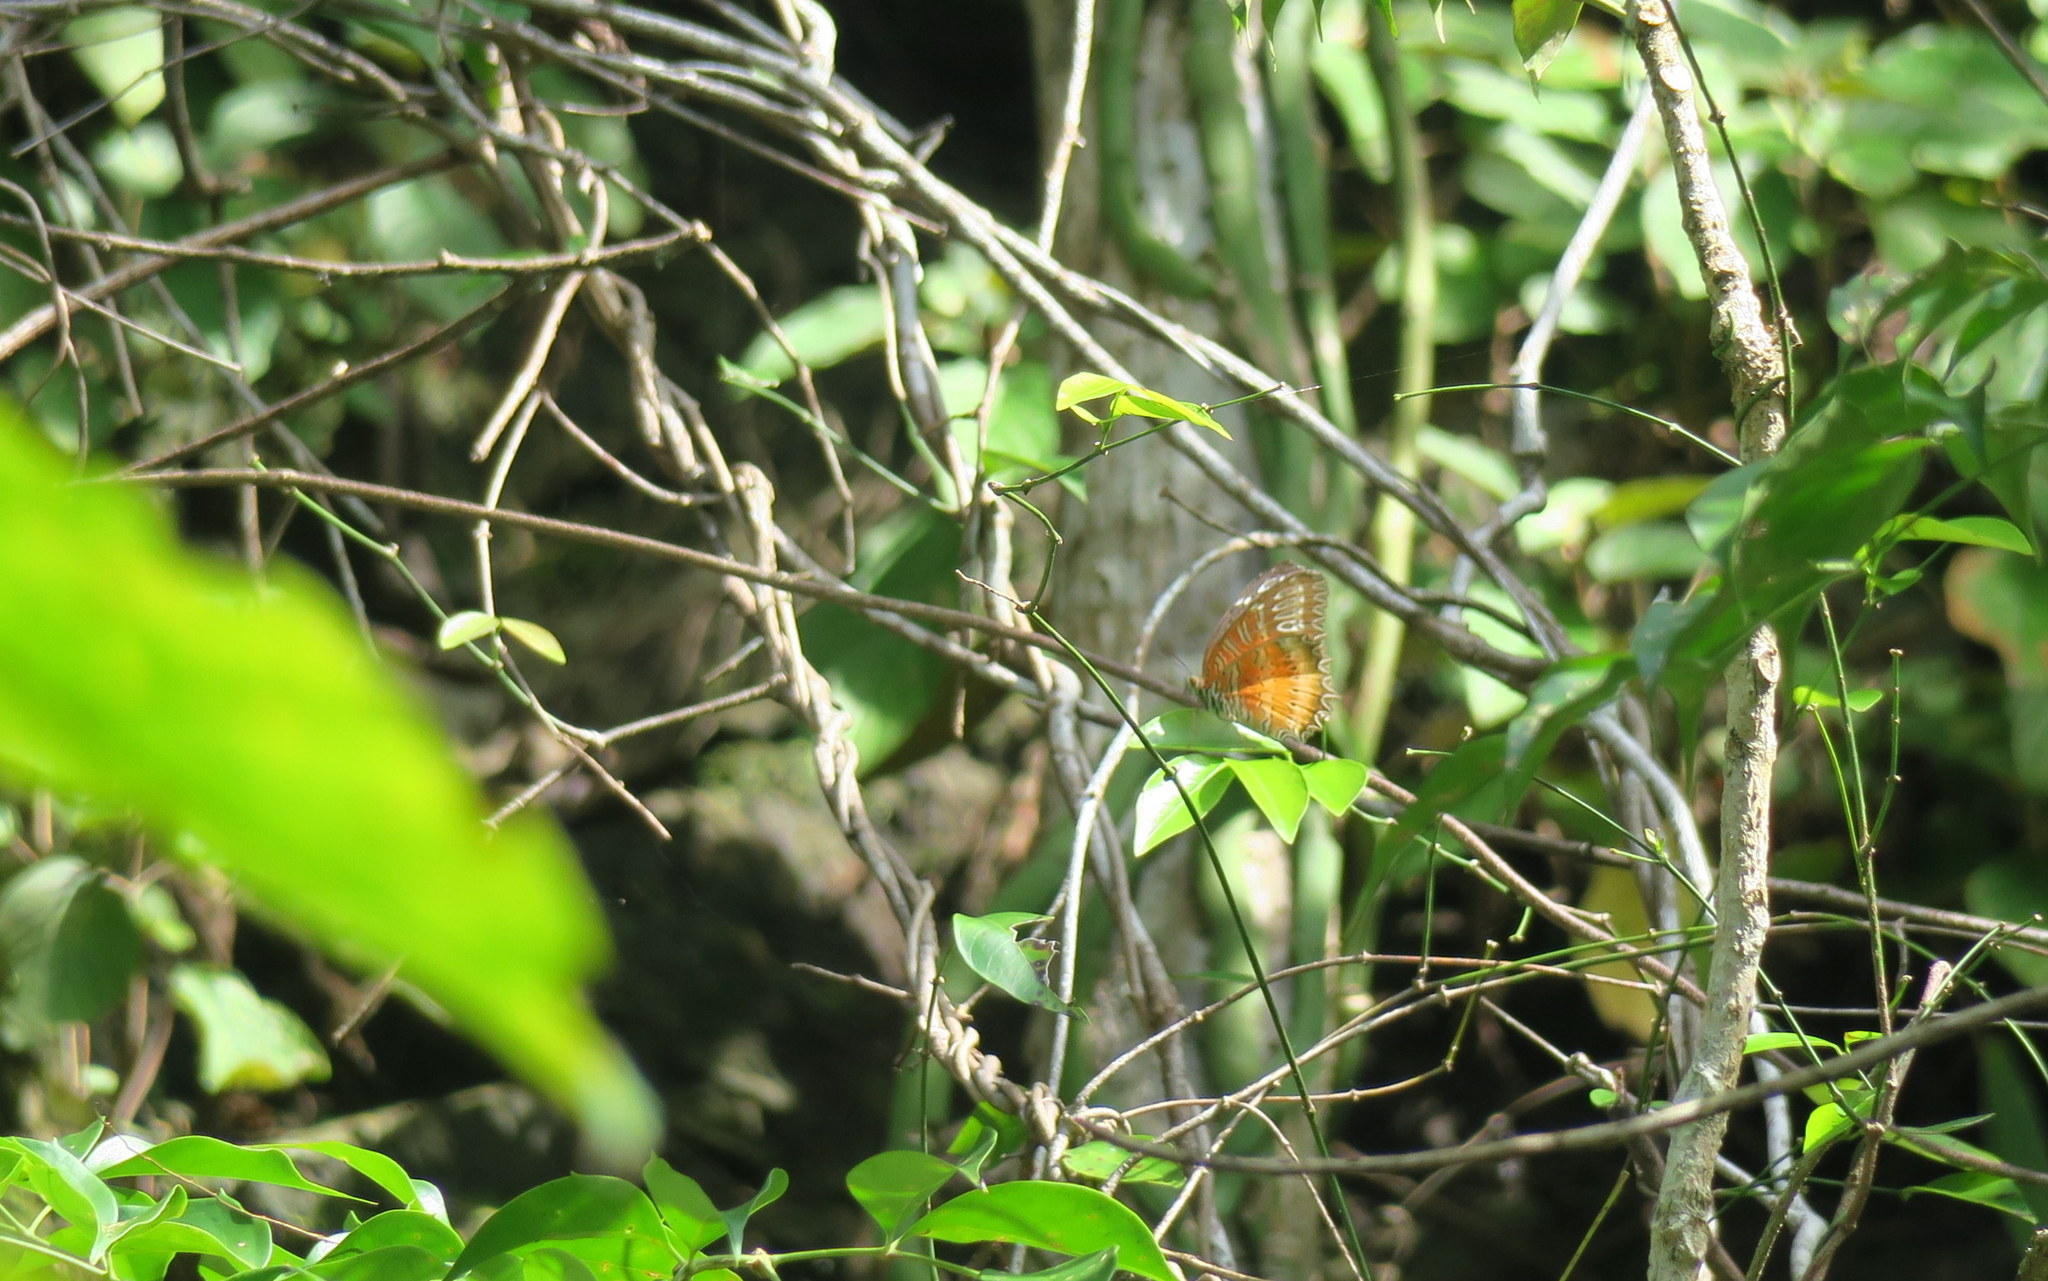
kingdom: Animalia
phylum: Arthropoda
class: Insecta
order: Lepidoptera
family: Nymphalidae
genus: Cethosia
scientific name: Cethosia biblis
